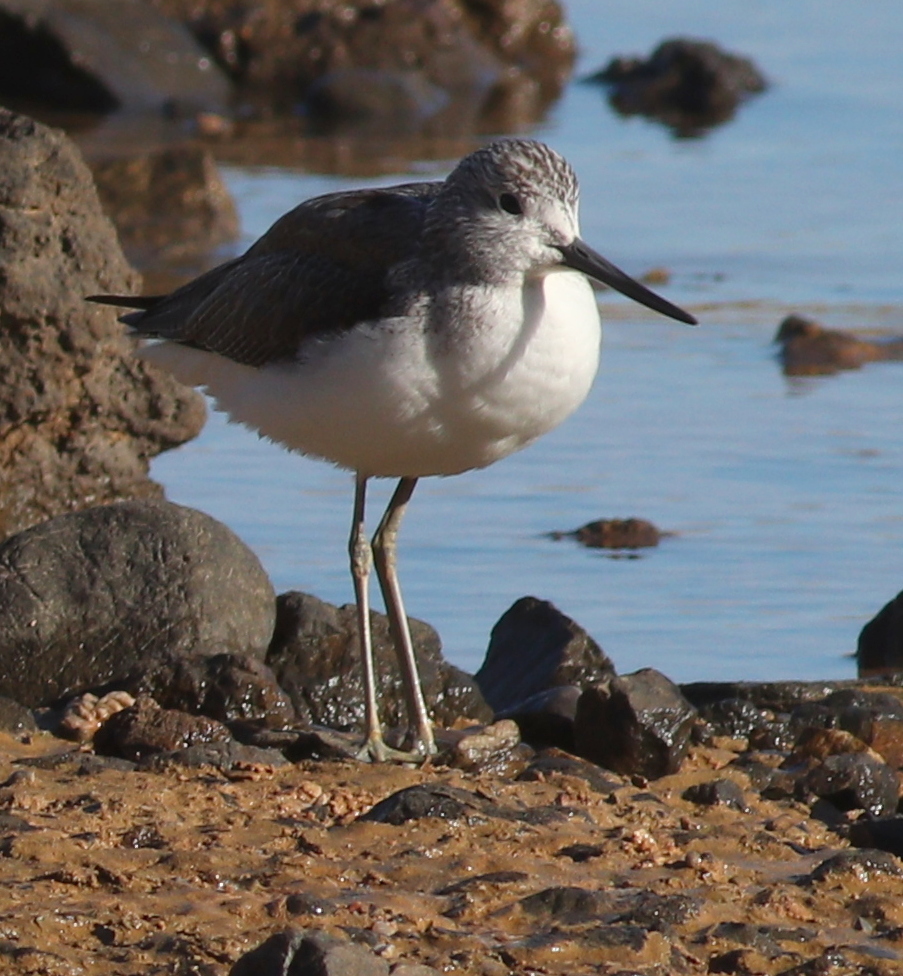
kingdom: Animalia
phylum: Chordata
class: Aves
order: Charadriiformes
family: Scolopacidae
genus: Tringa
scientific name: Tringa nebularia
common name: Common greenshank
